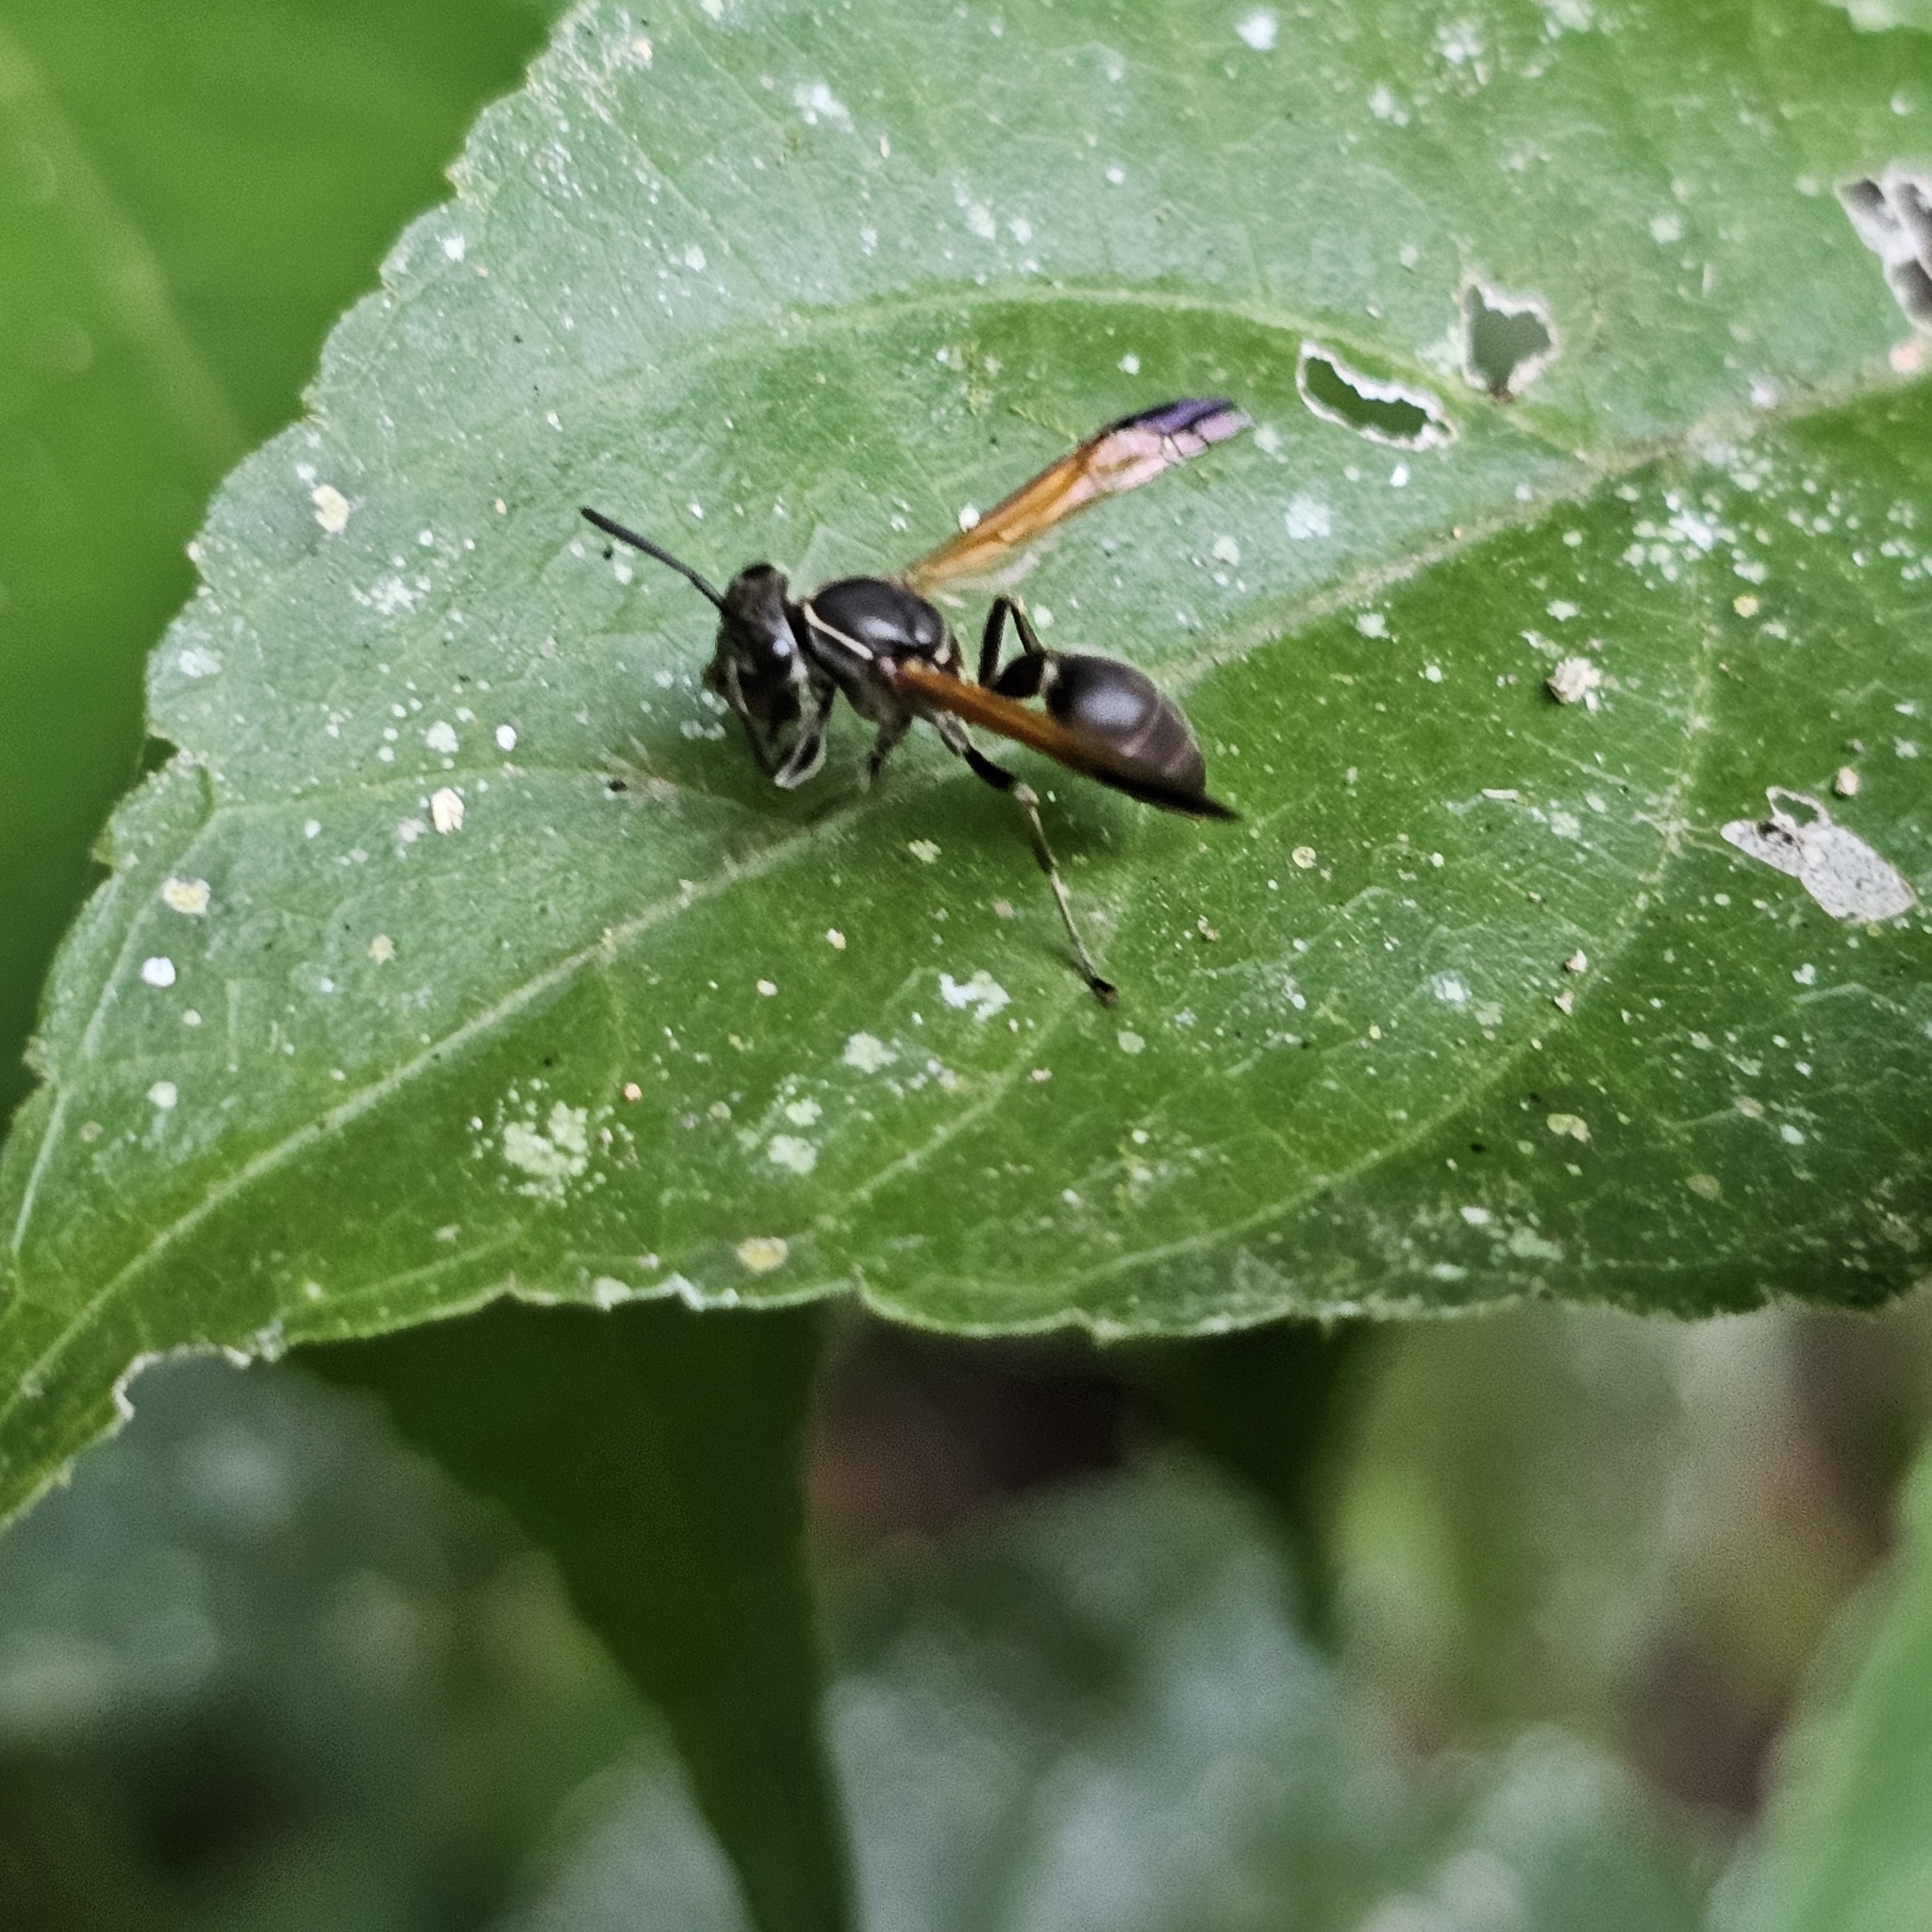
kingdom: Animalia
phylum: Arthropoda
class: Insecta
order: Hymenoptera
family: Eumenidae
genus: Polybia
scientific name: Polybia rejecta
